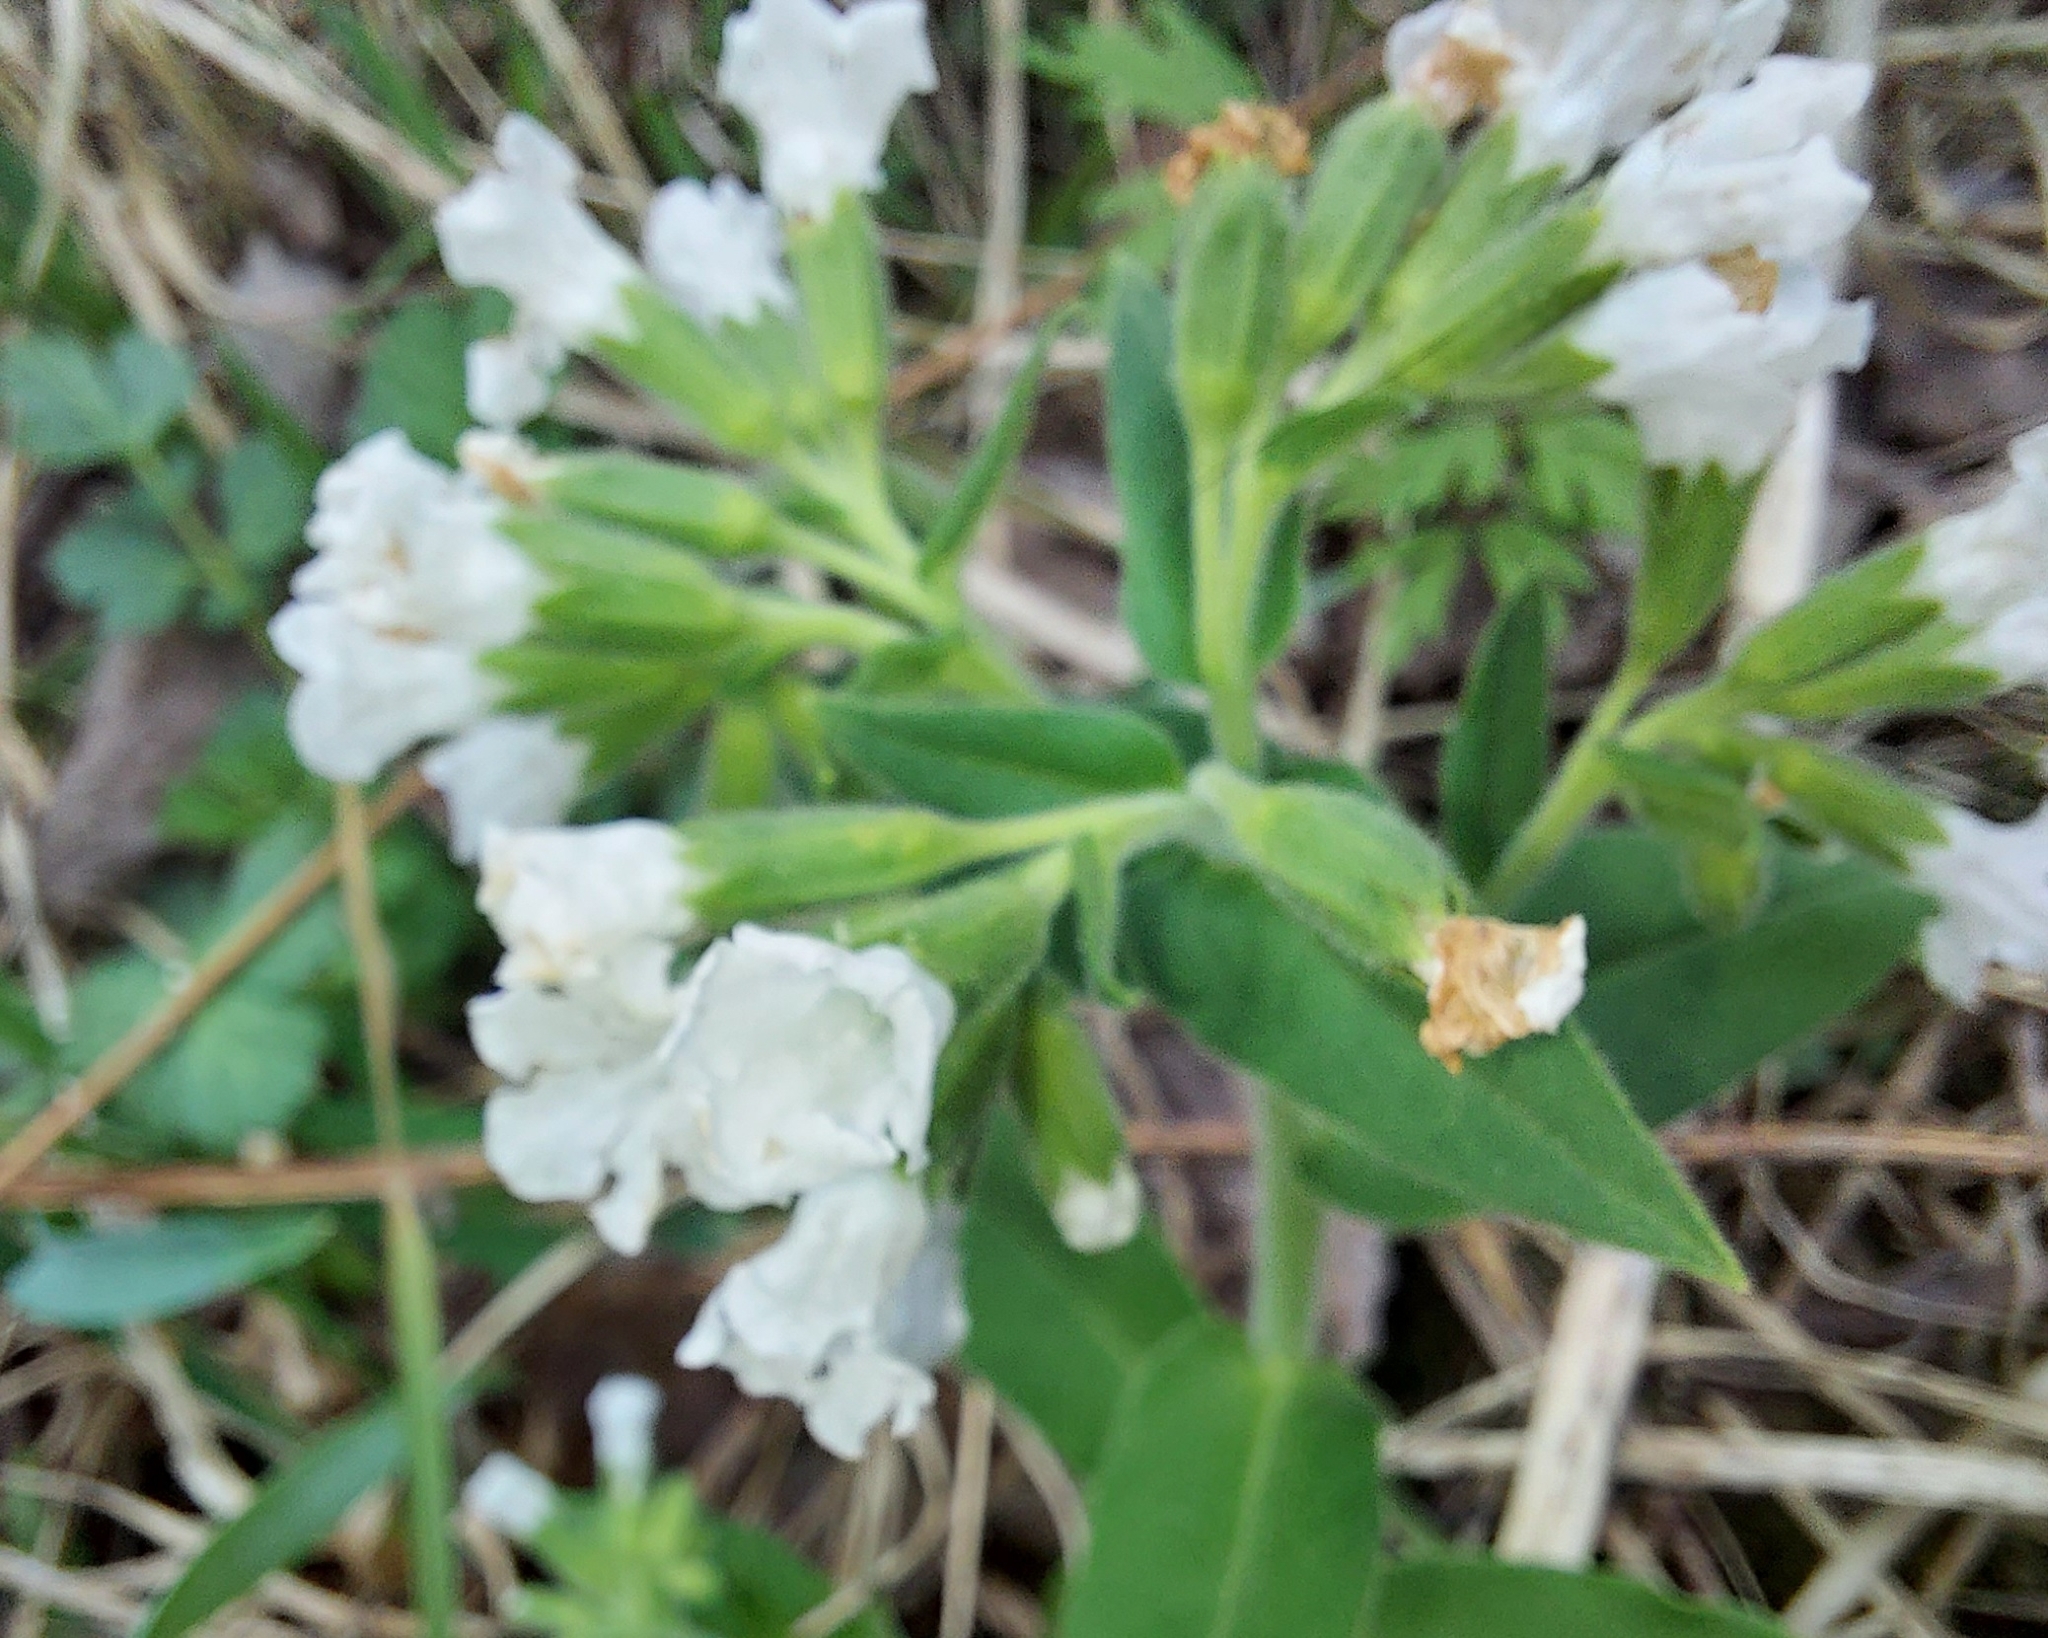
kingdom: Plantae
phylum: Tracheophyta
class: Magnoliopsida
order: Boraginales
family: Boraginaceae
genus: Pulmonaria
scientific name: Pulmonaria mollis
